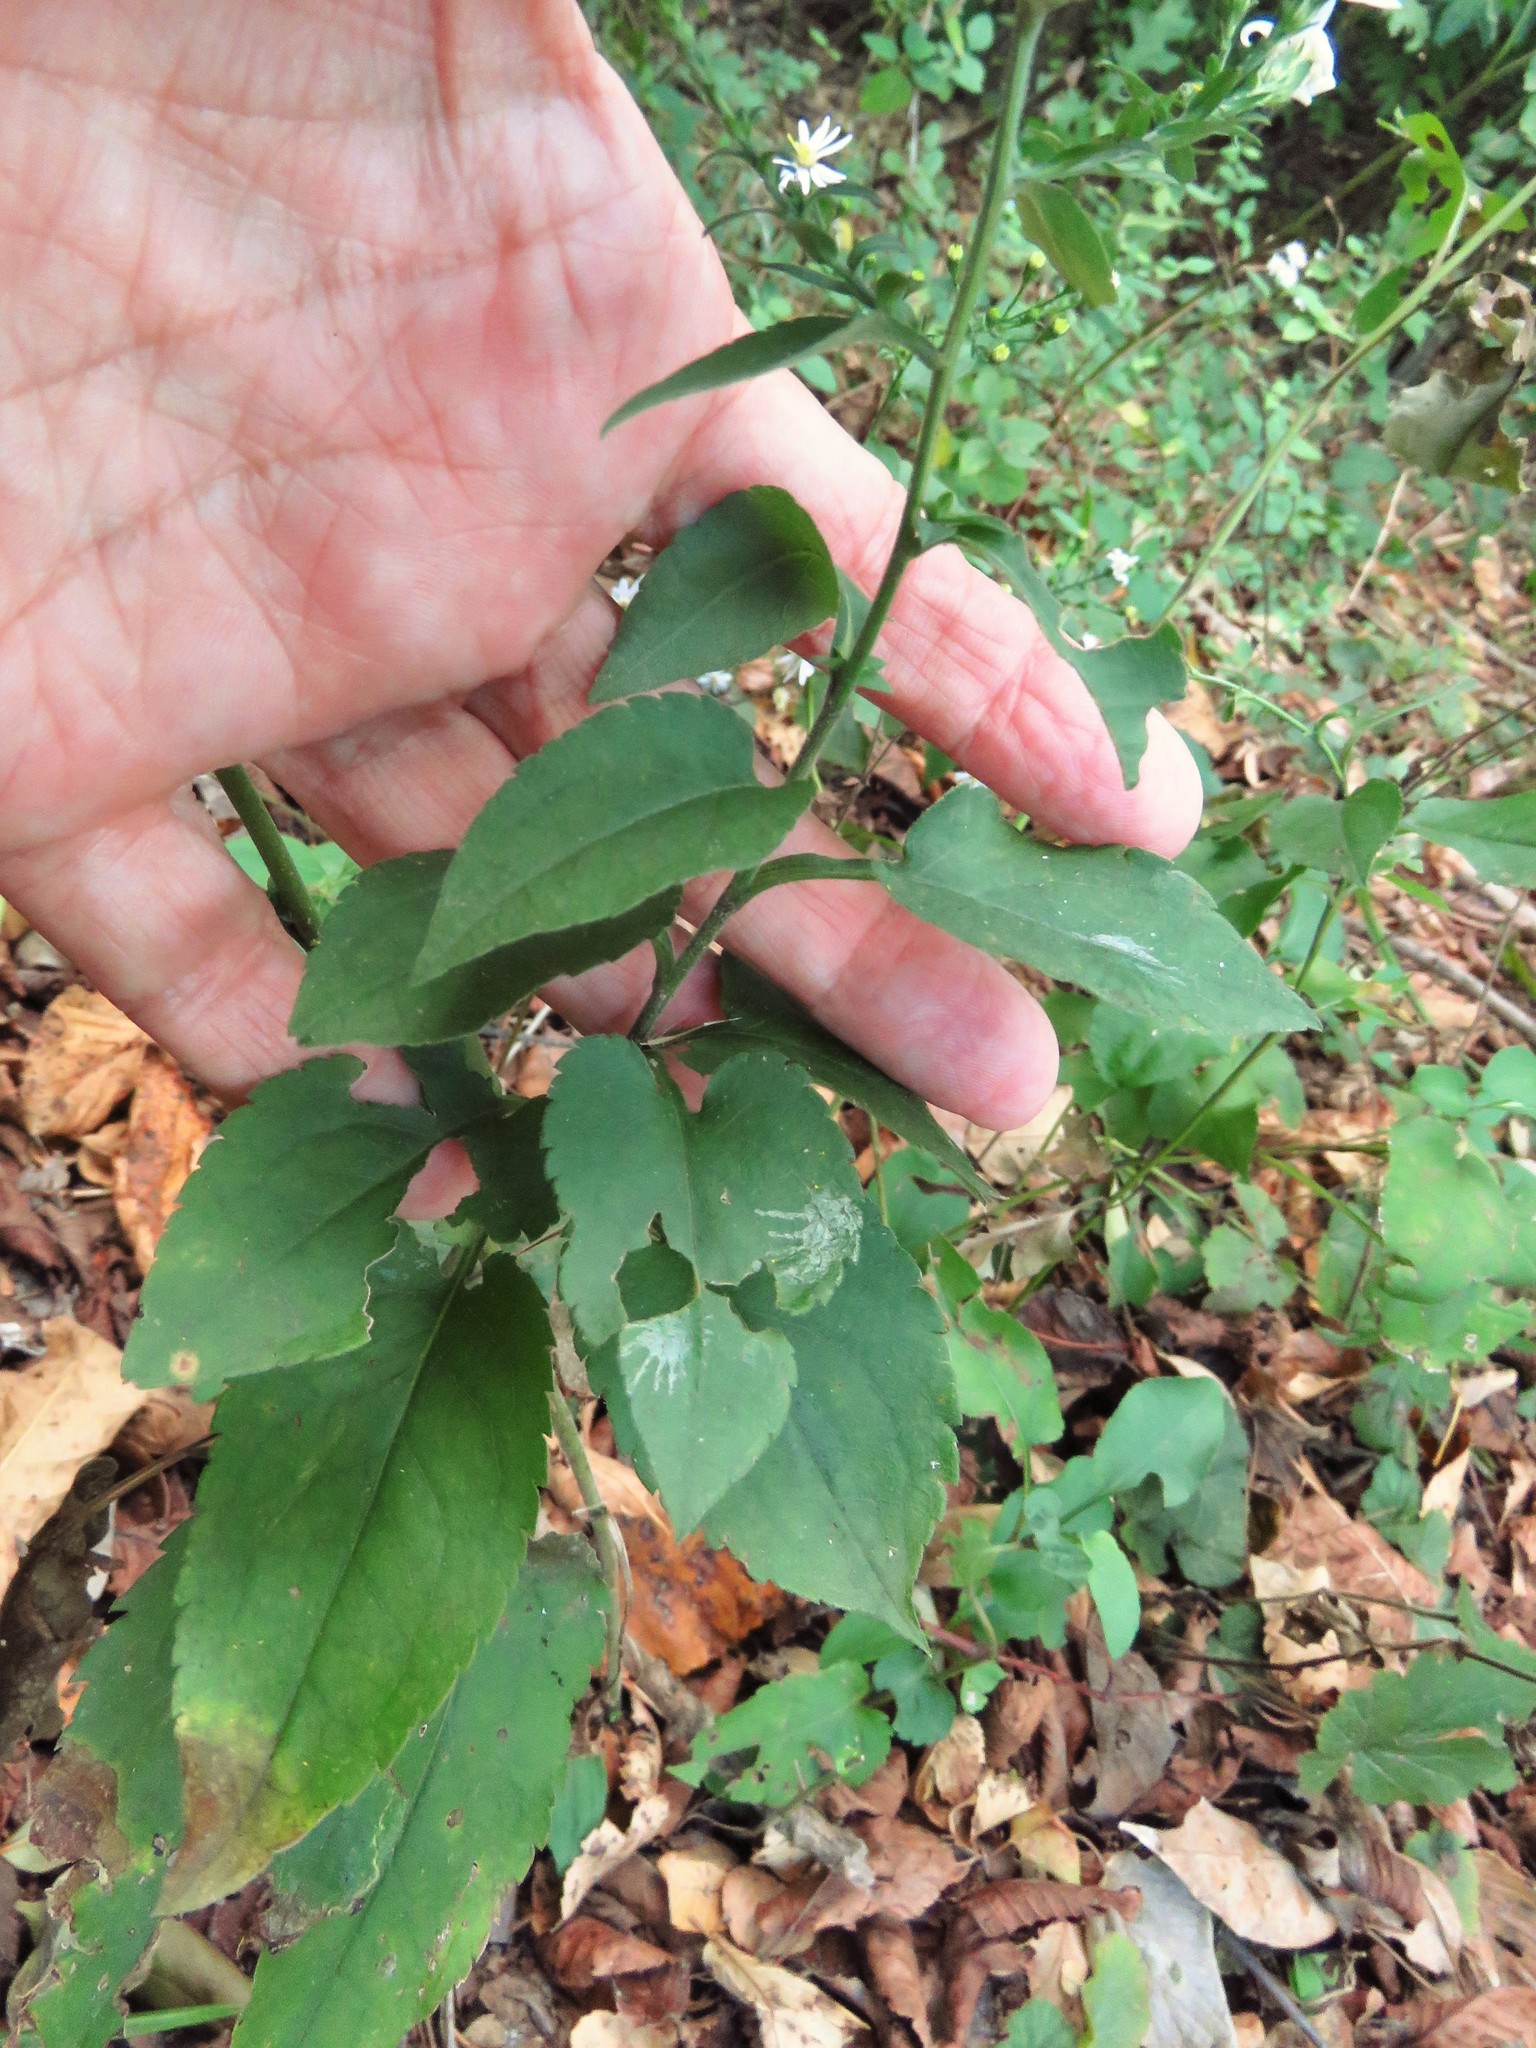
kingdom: Plantae
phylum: Tracheophyta
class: Magnoliopsida
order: Asterales
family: Asteraceae
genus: Symphyotrichum
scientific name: Symphyotrichum drummondii
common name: Drummond's aster
